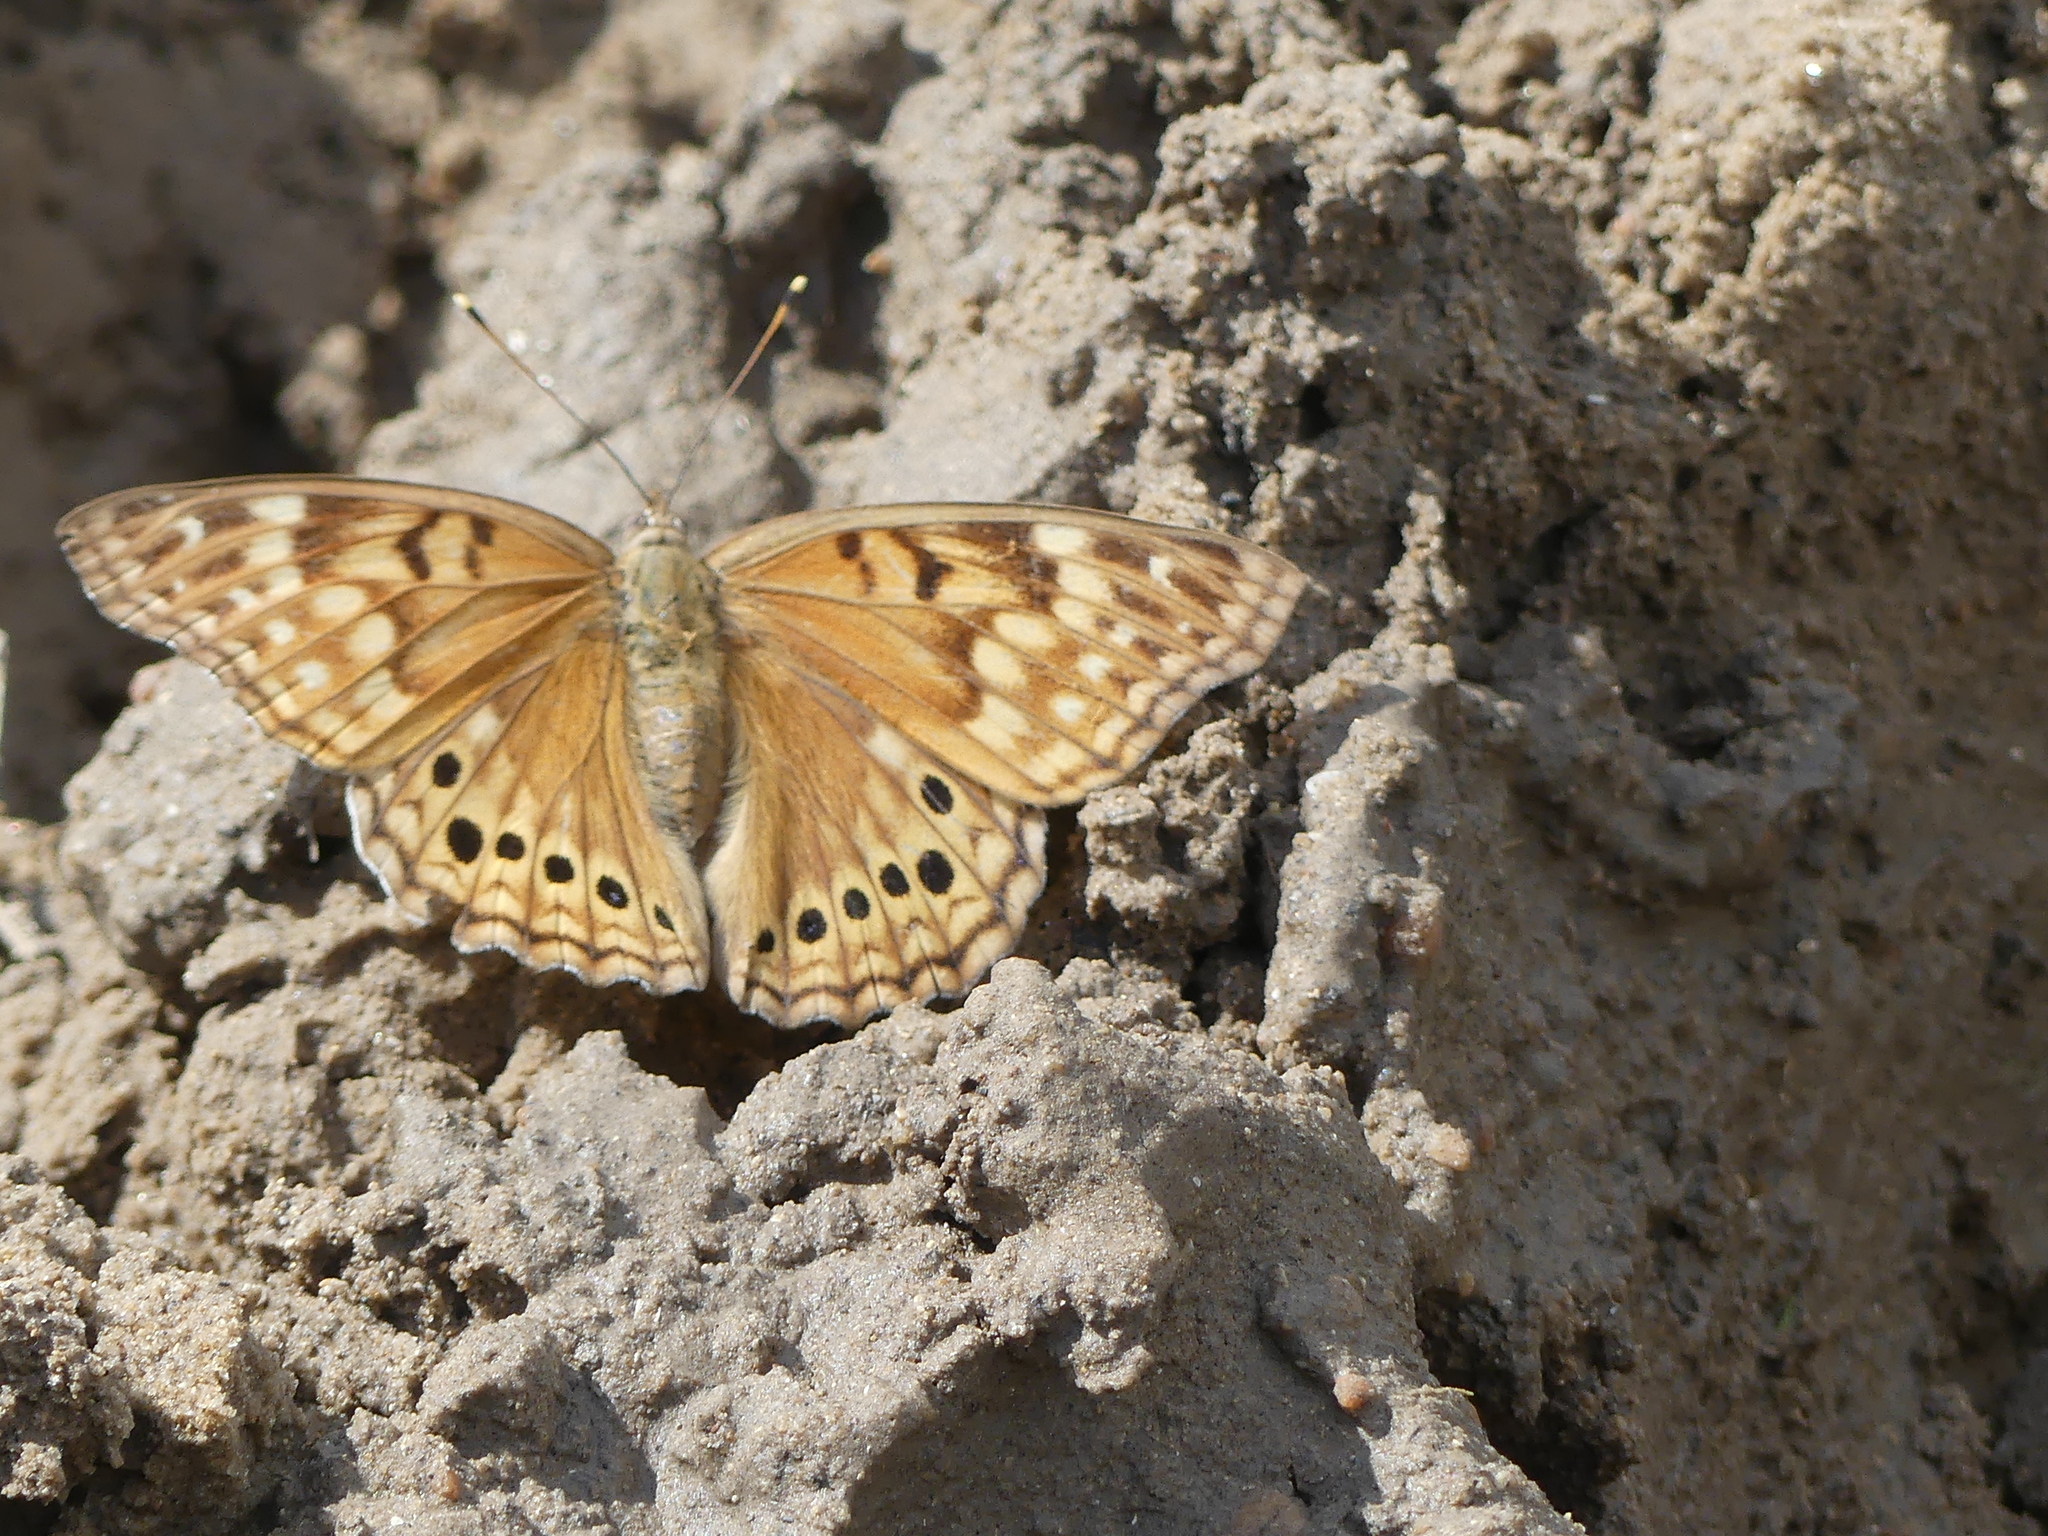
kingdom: Animalia
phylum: Arthropoda
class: Insecta
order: Lepidoptera
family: Nymphalidae
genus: Asterocampa
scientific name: Asterocampa clyton
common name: Tawny emperor
